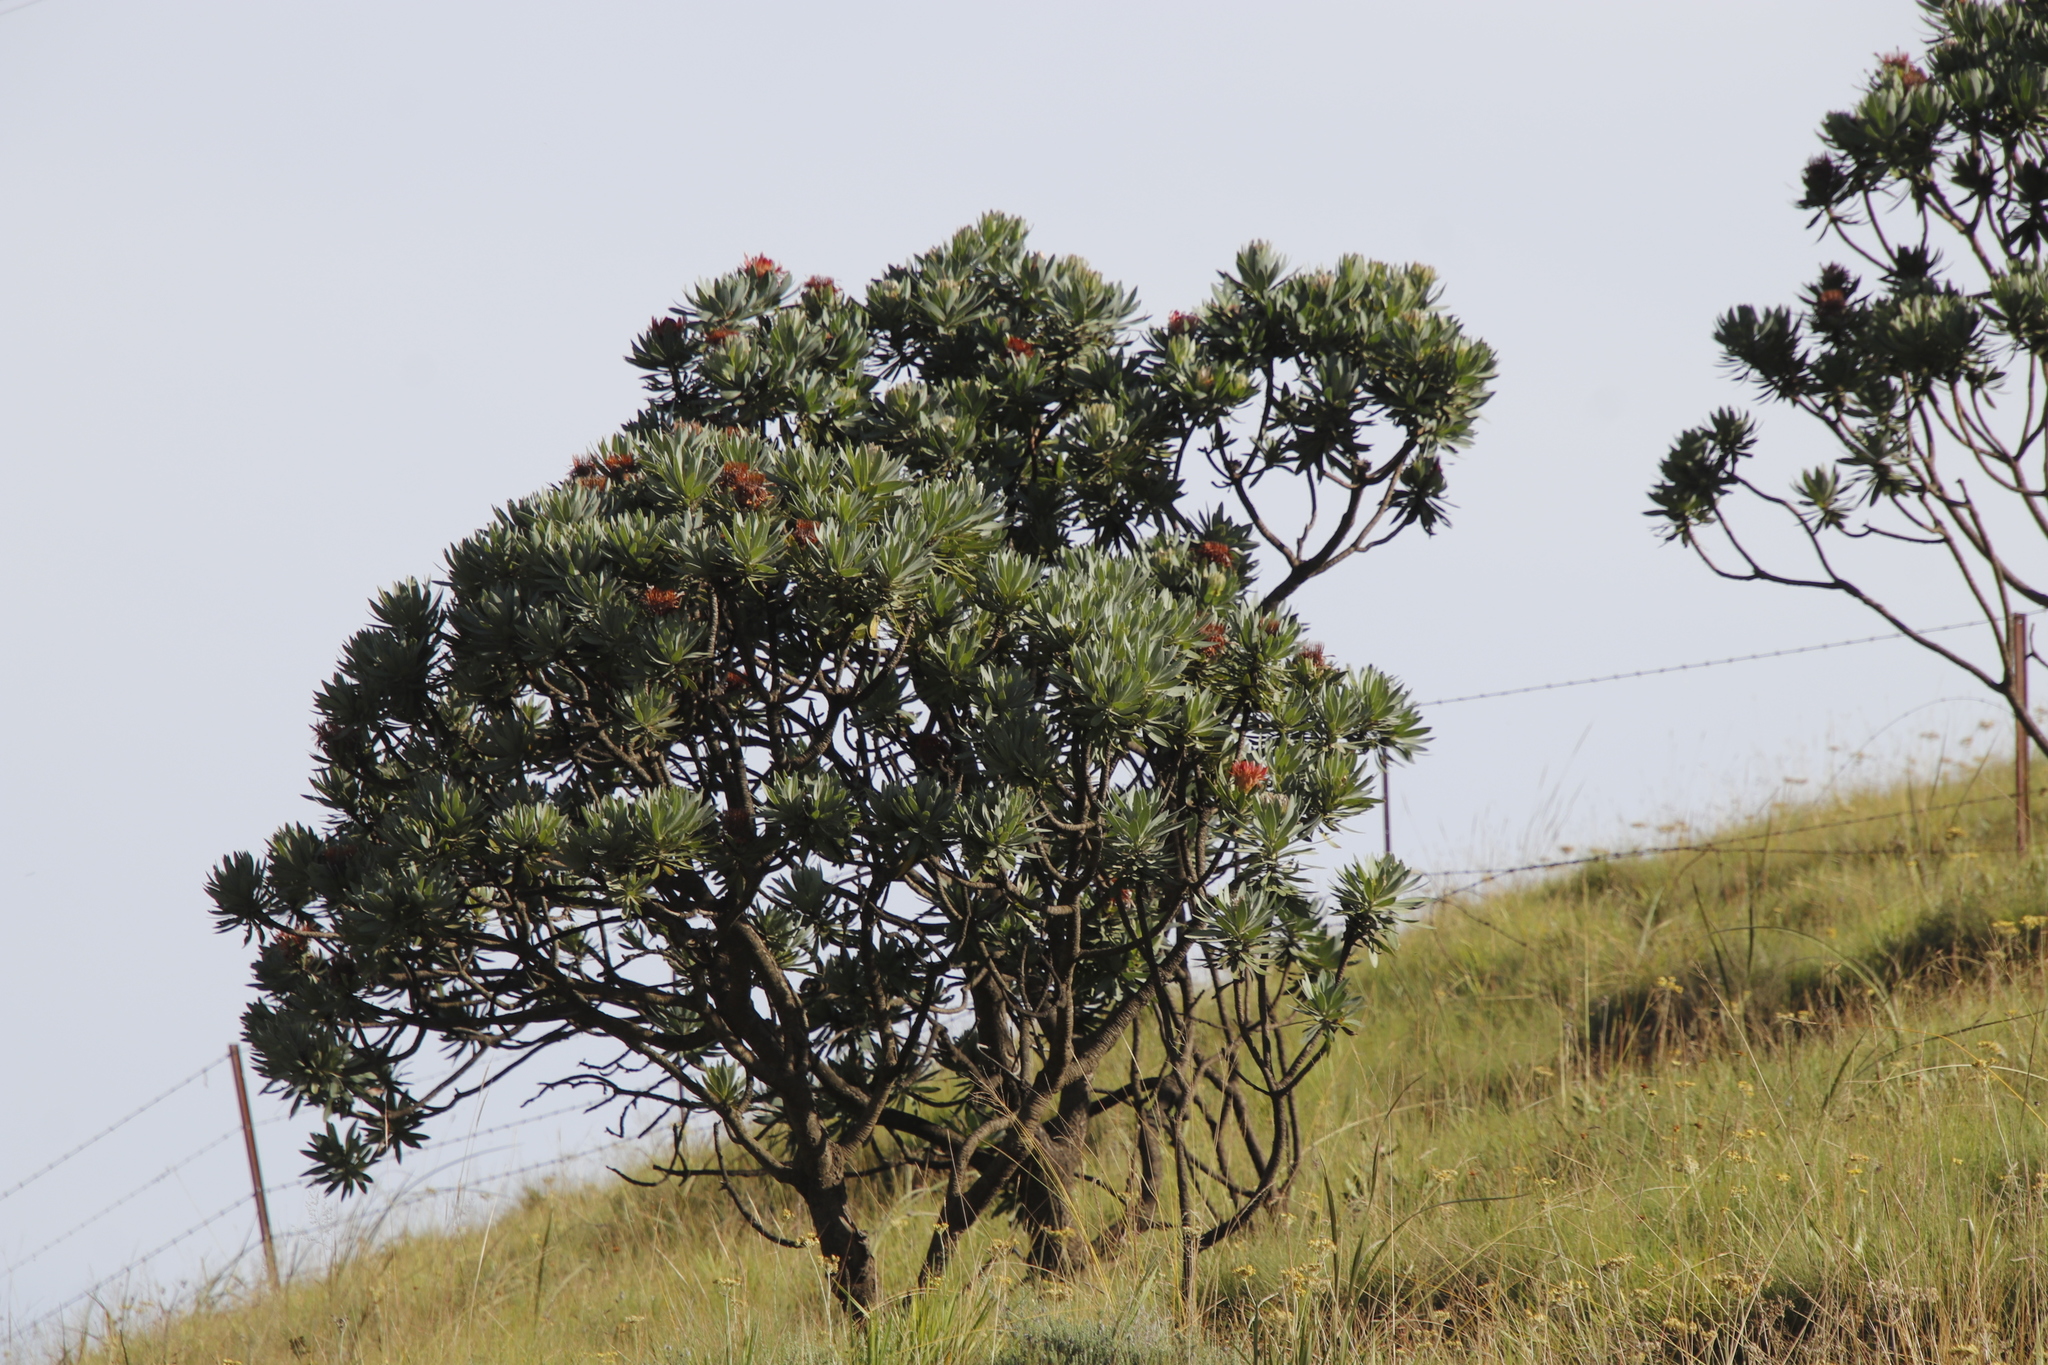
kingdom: Plantae
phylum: Tracheophyta
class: Magnoliopsida
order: Proteales
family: Proteaceae
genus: Protea
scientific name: Protea roupelliae
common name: Silver sugarbush
